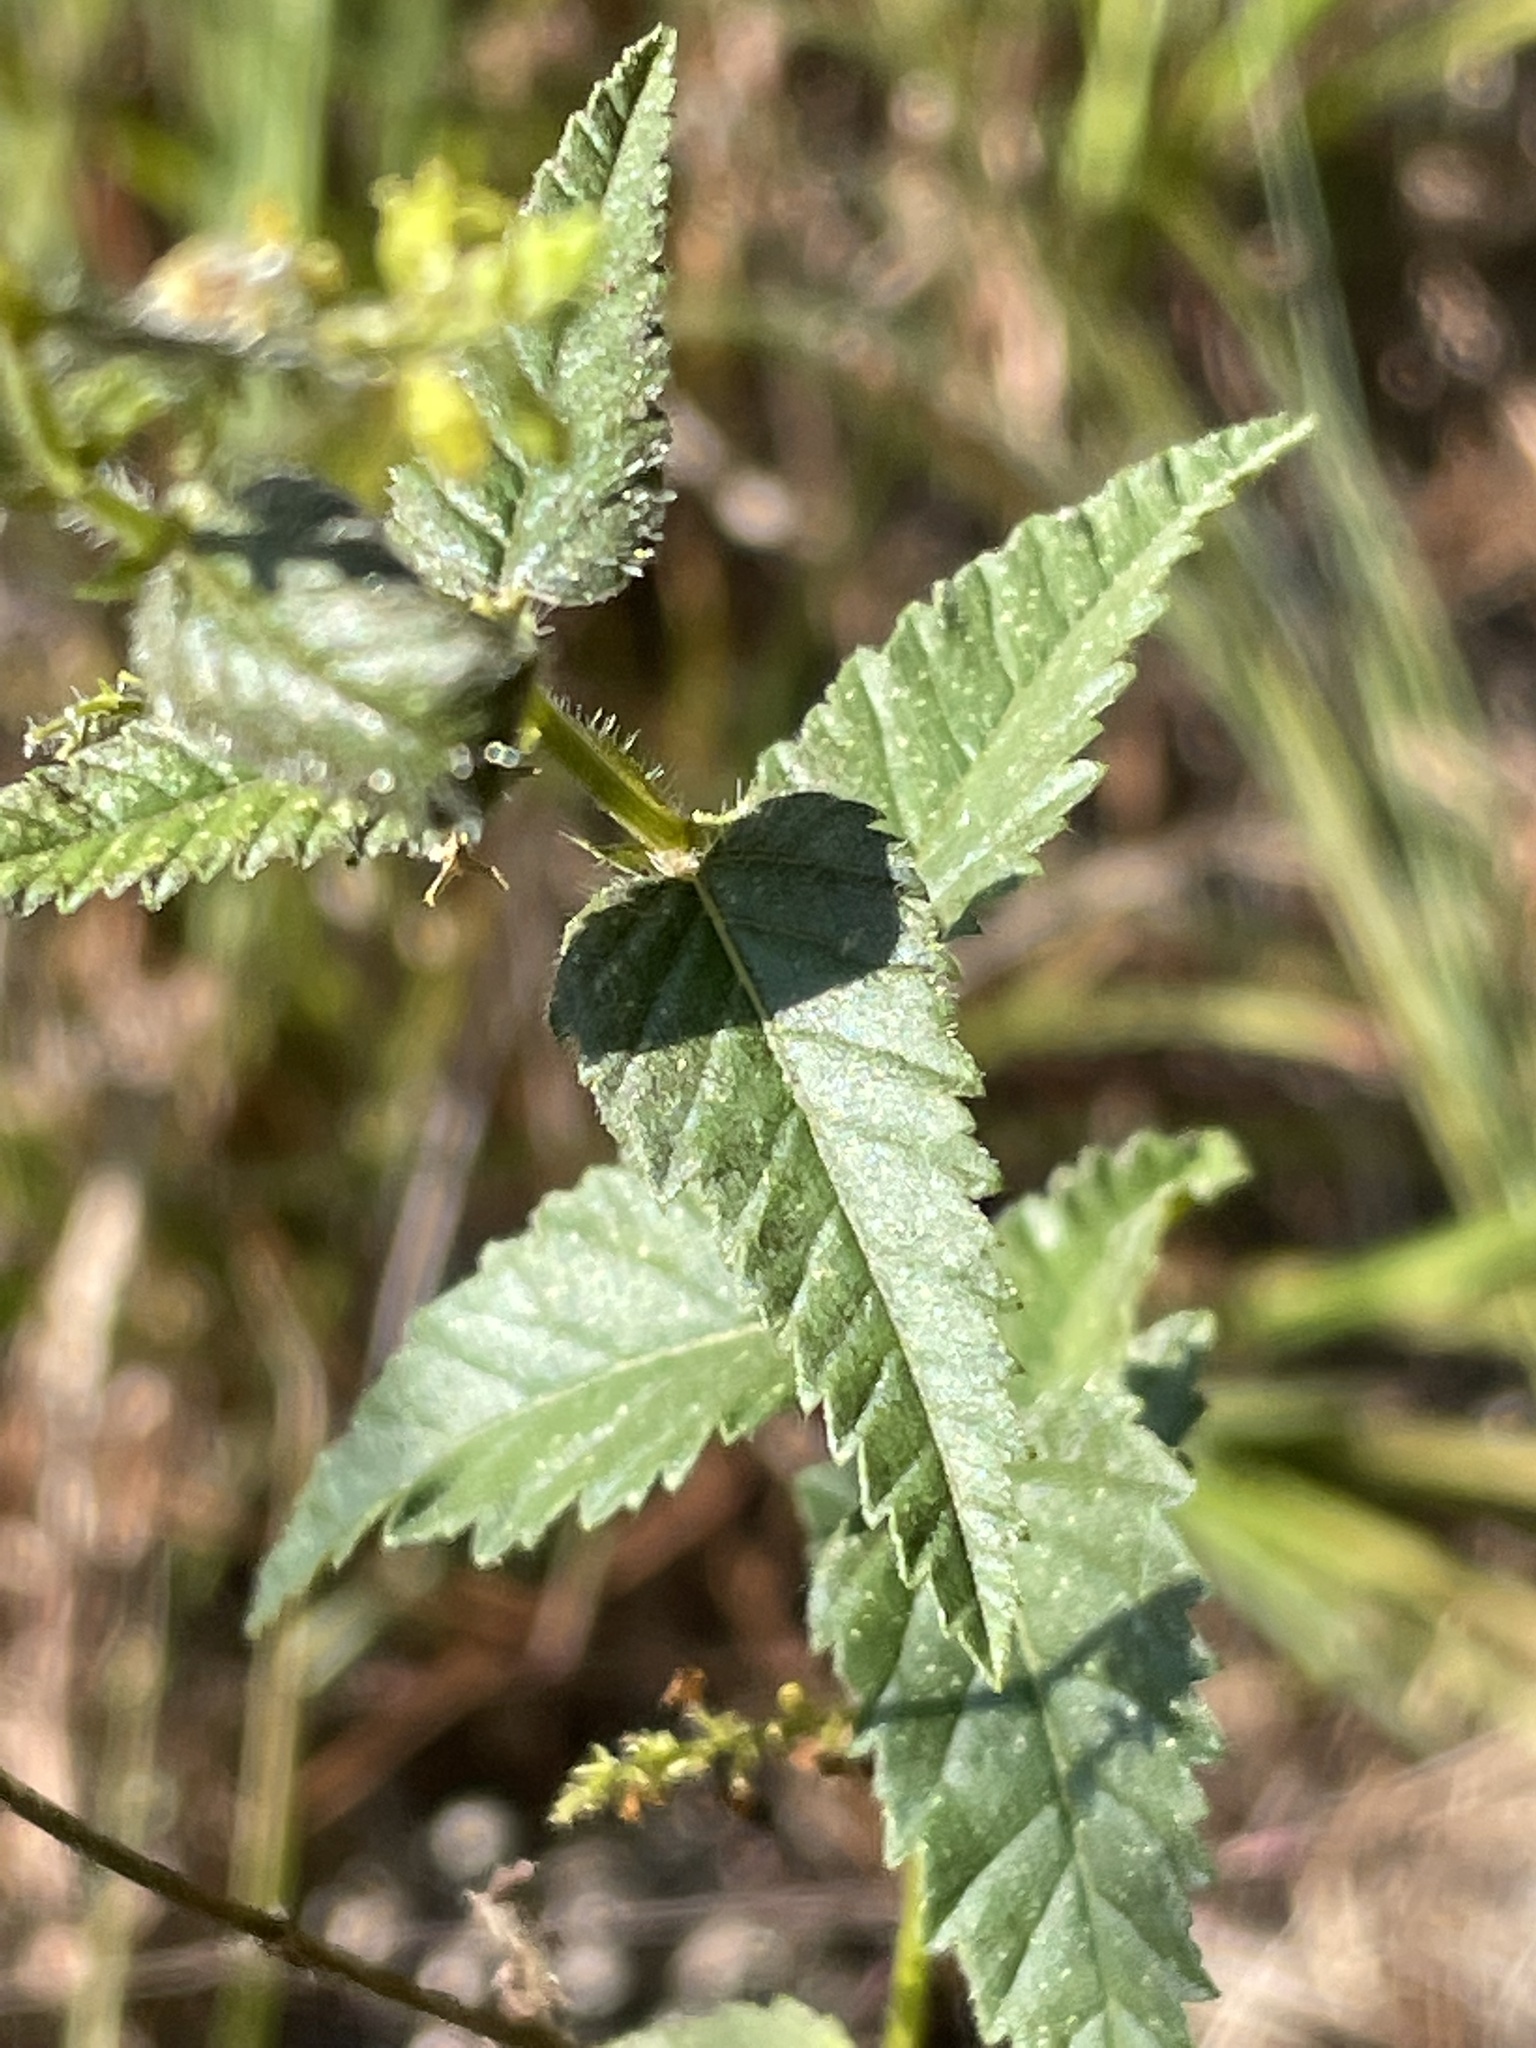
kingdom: Plantae
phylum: Tracheophyta
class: Magnoliopsida
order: Malpighiales
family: Euphorbiaceae
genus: Tragia
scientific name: Tragia urticifolia
